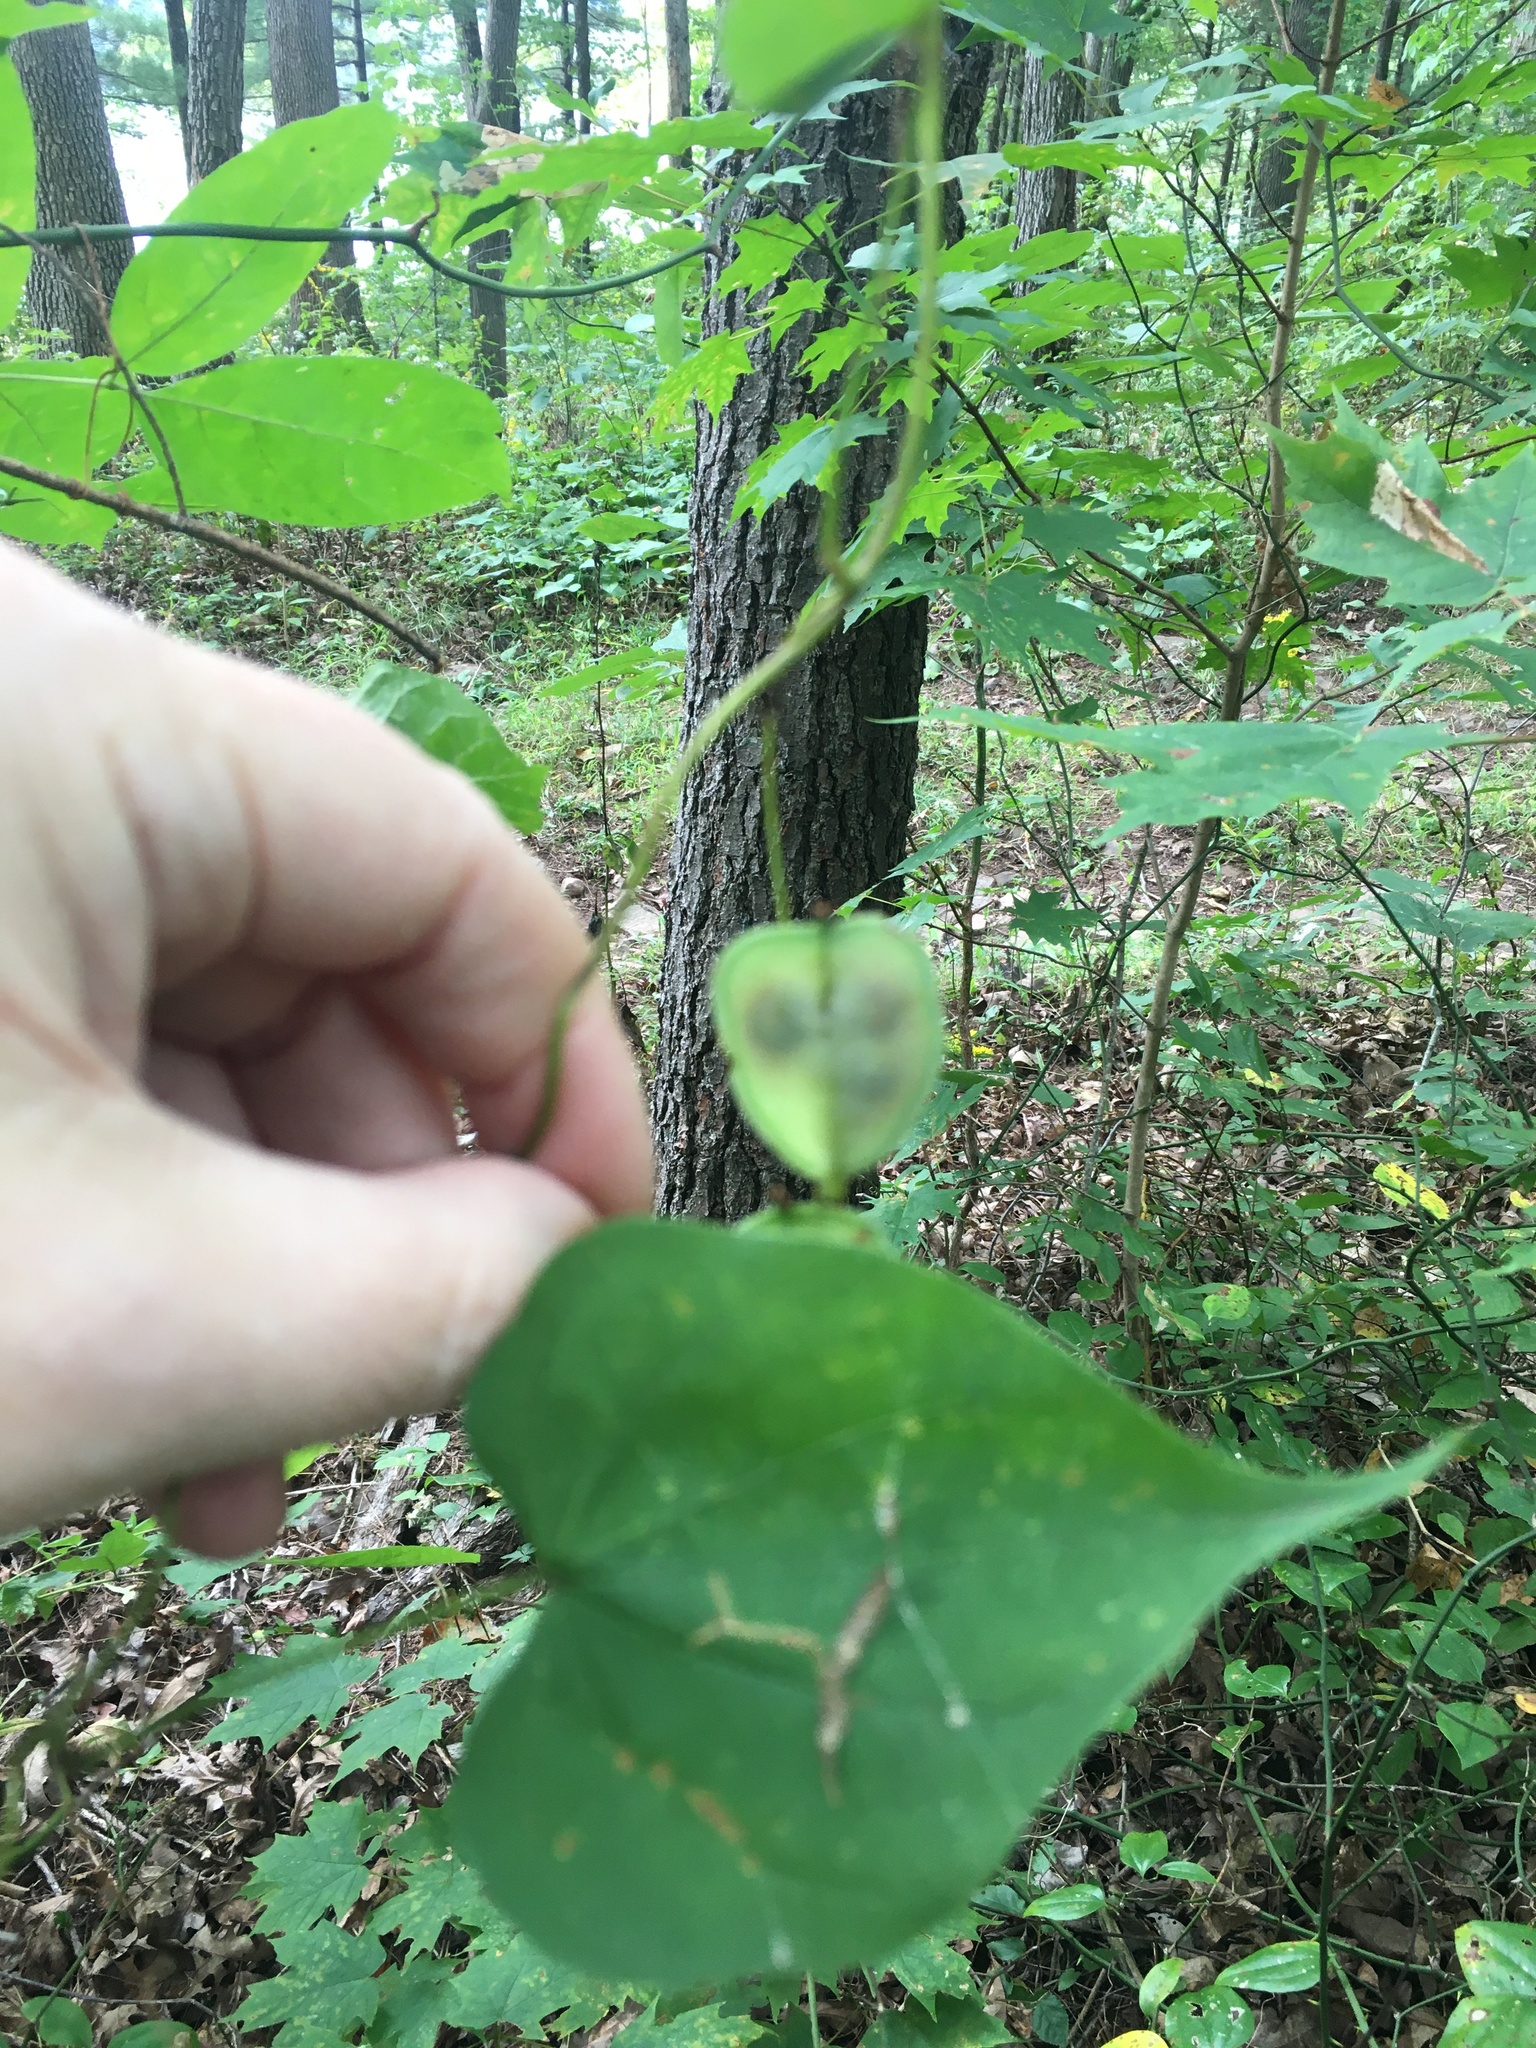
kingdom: Plantae
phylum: Tracheophyta
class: Liliopsida
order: Dioscoreales
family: Dioscoreaceae
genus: Dioscorea
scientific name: Dioscorea villosa
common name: Wild yam
